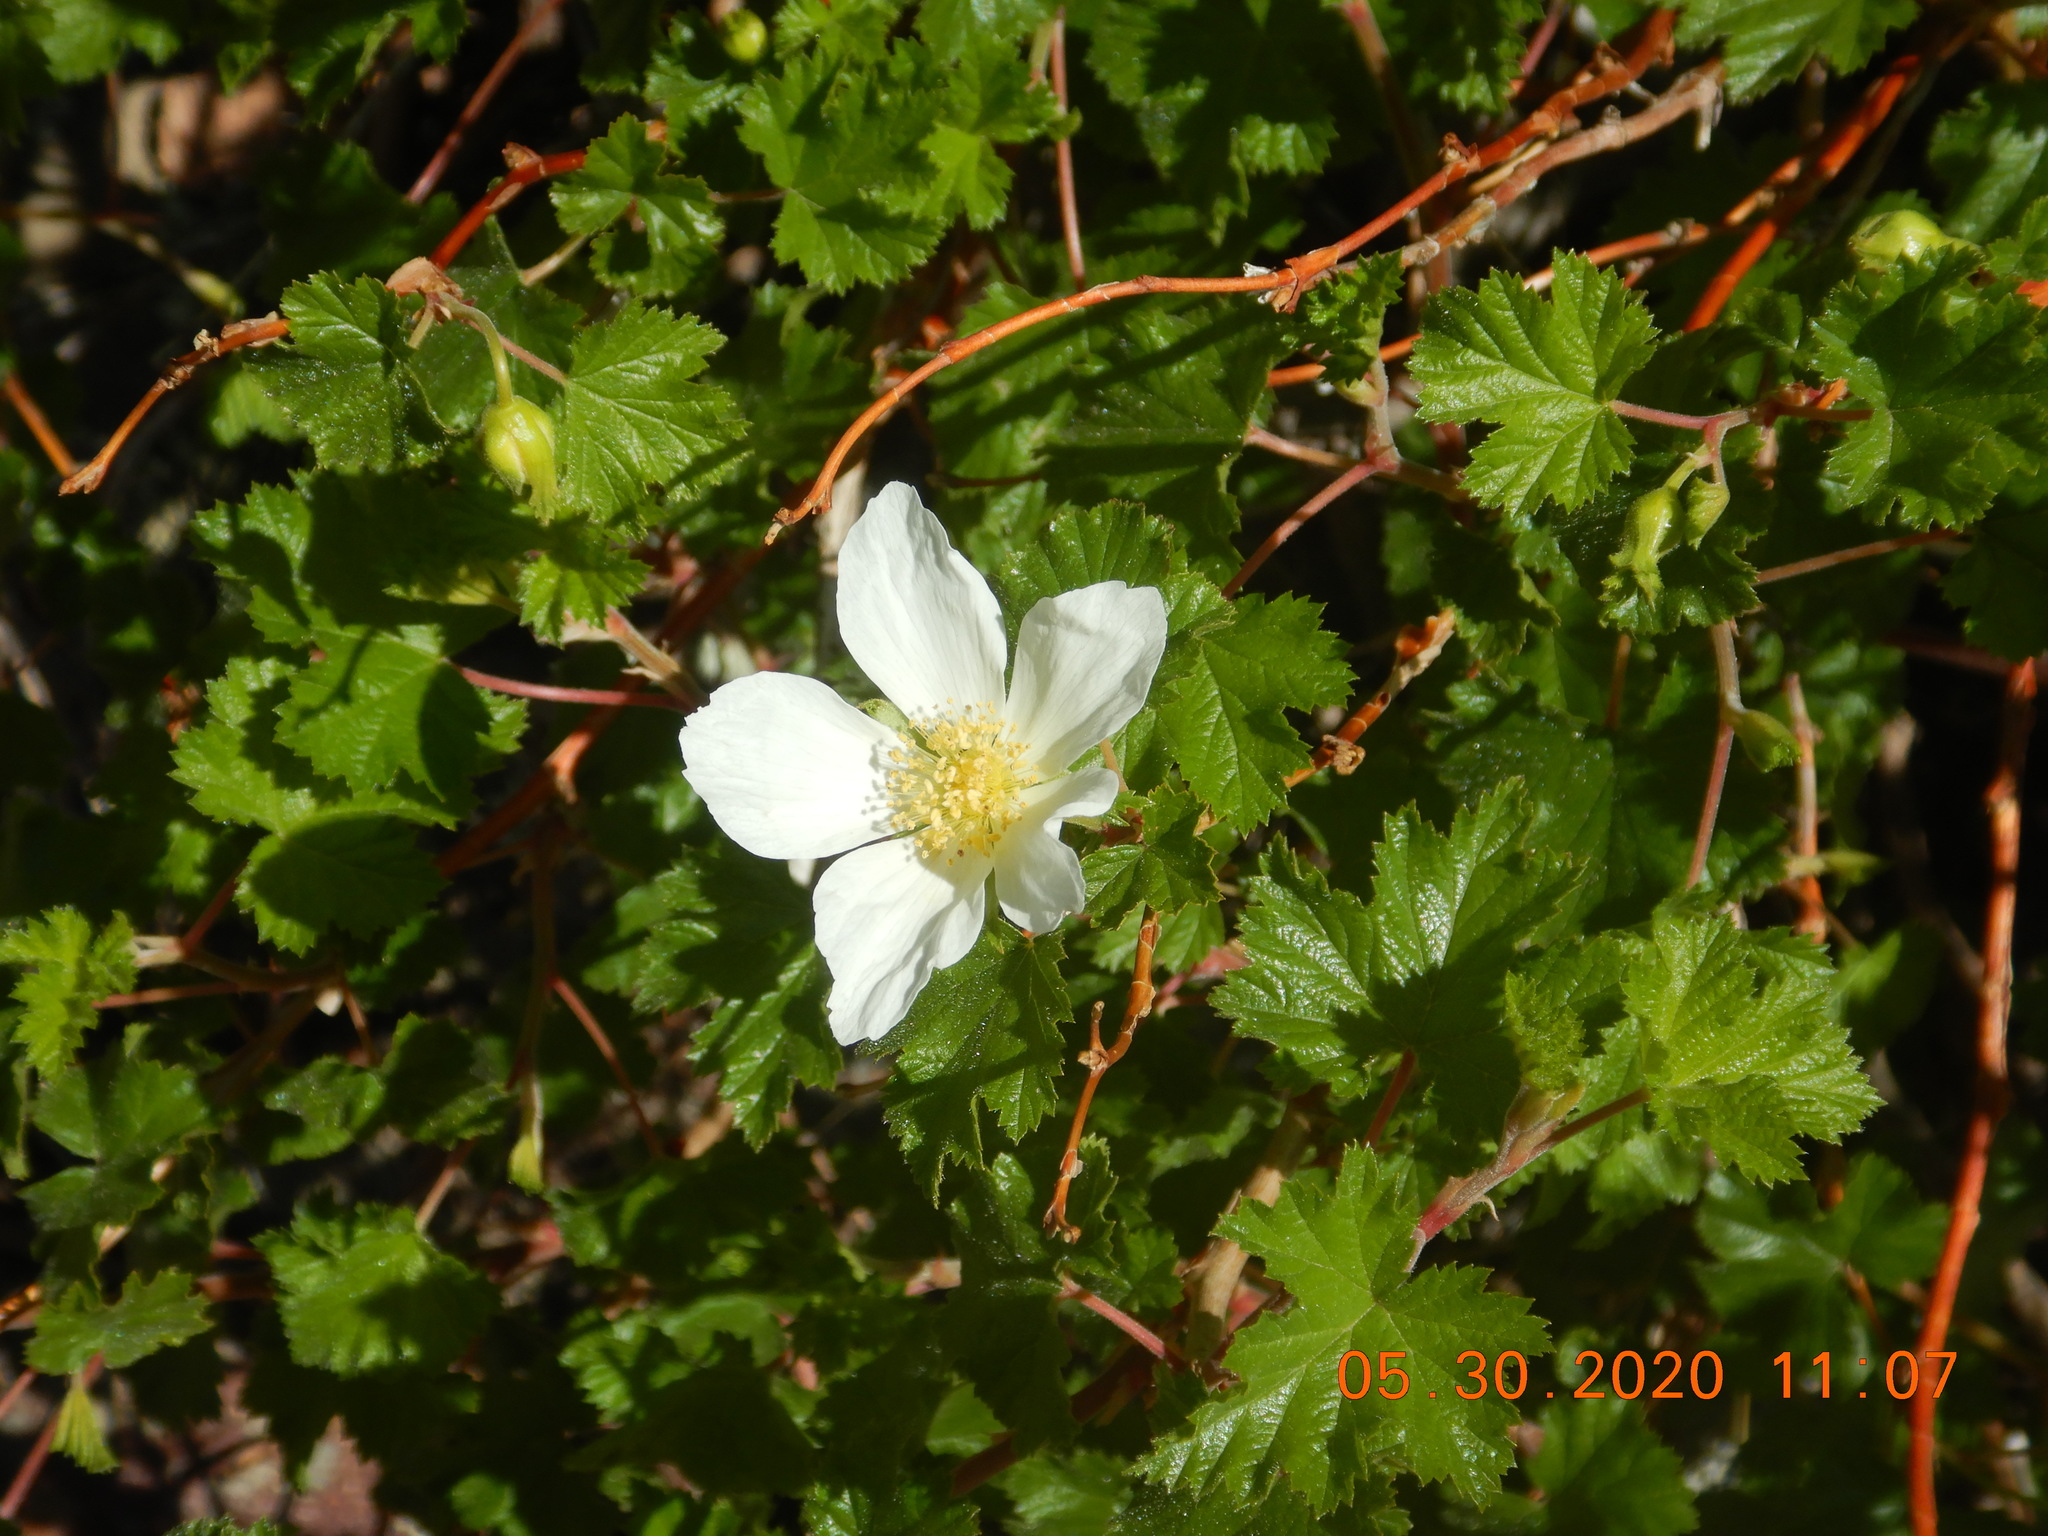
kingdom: Plantae
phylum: Tracheophyta
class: Magnoliopsida
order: Rosales
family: Rosaceae
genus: Rubus
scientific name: Rubus deliciosus
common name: Rocky mountain raspberry
